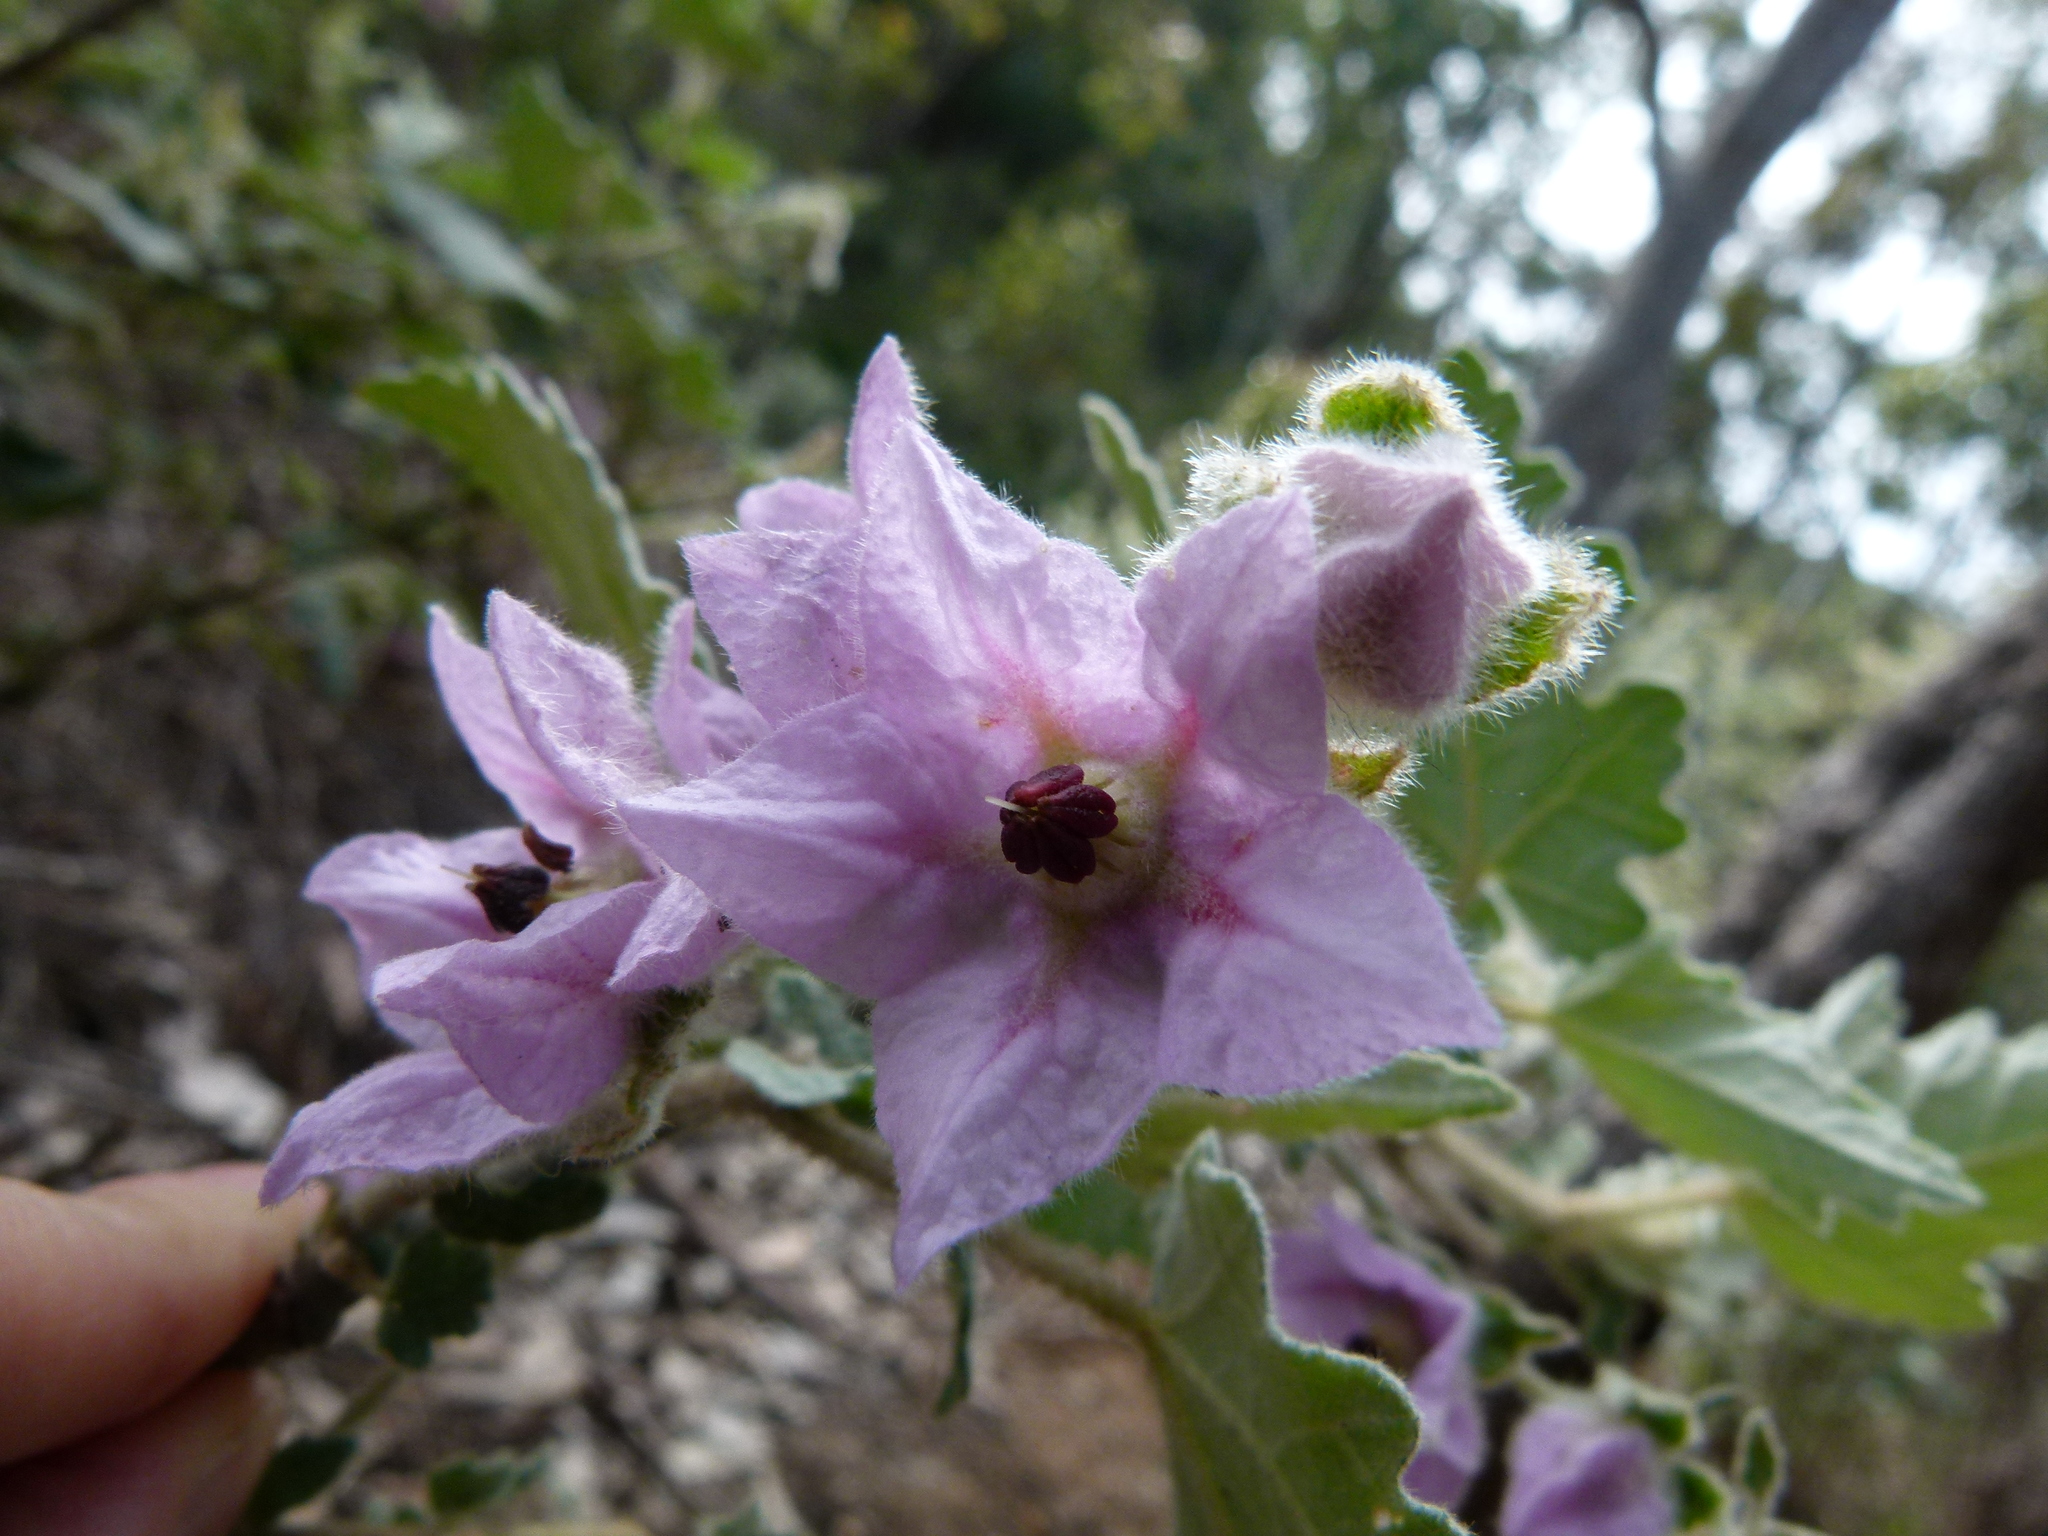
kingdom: Plantae
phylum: Tracheophyta
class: Magnoliopsida
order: Malvales
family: Malvaceae
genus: Thomasia
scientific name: Thomasia macrocarpa
